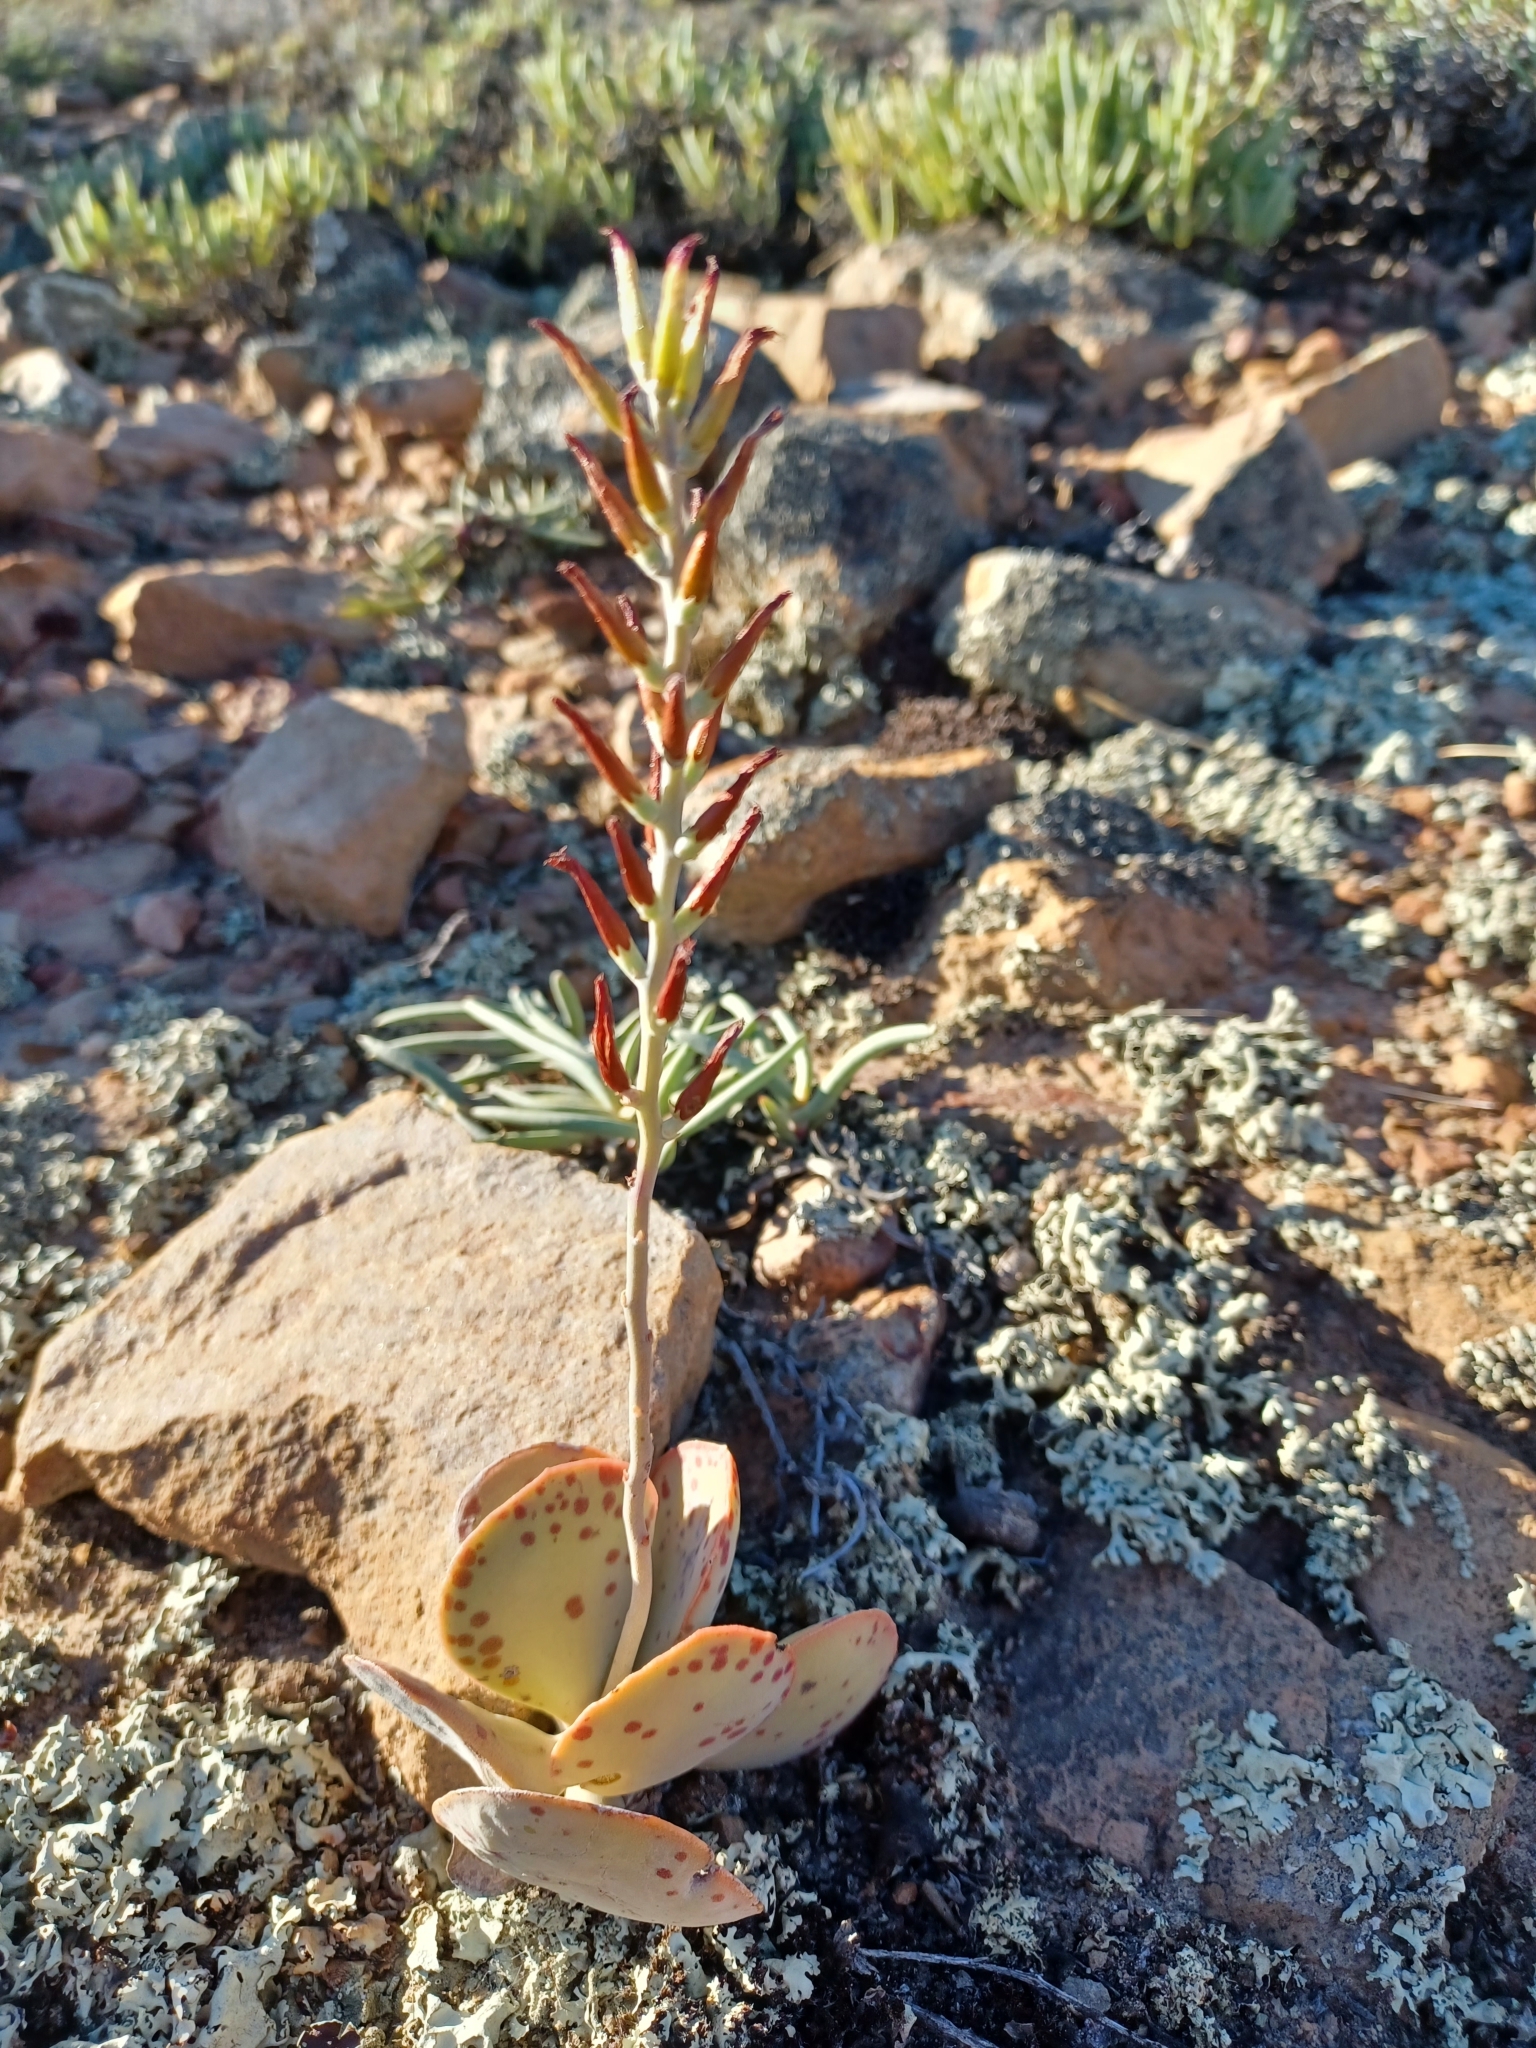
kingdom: Plantae
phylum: Tracheophyta
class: Magnoliopsida
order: Saxifragales
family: Crassulaceae
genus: Adromischus
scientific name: Adromischus maculatus
